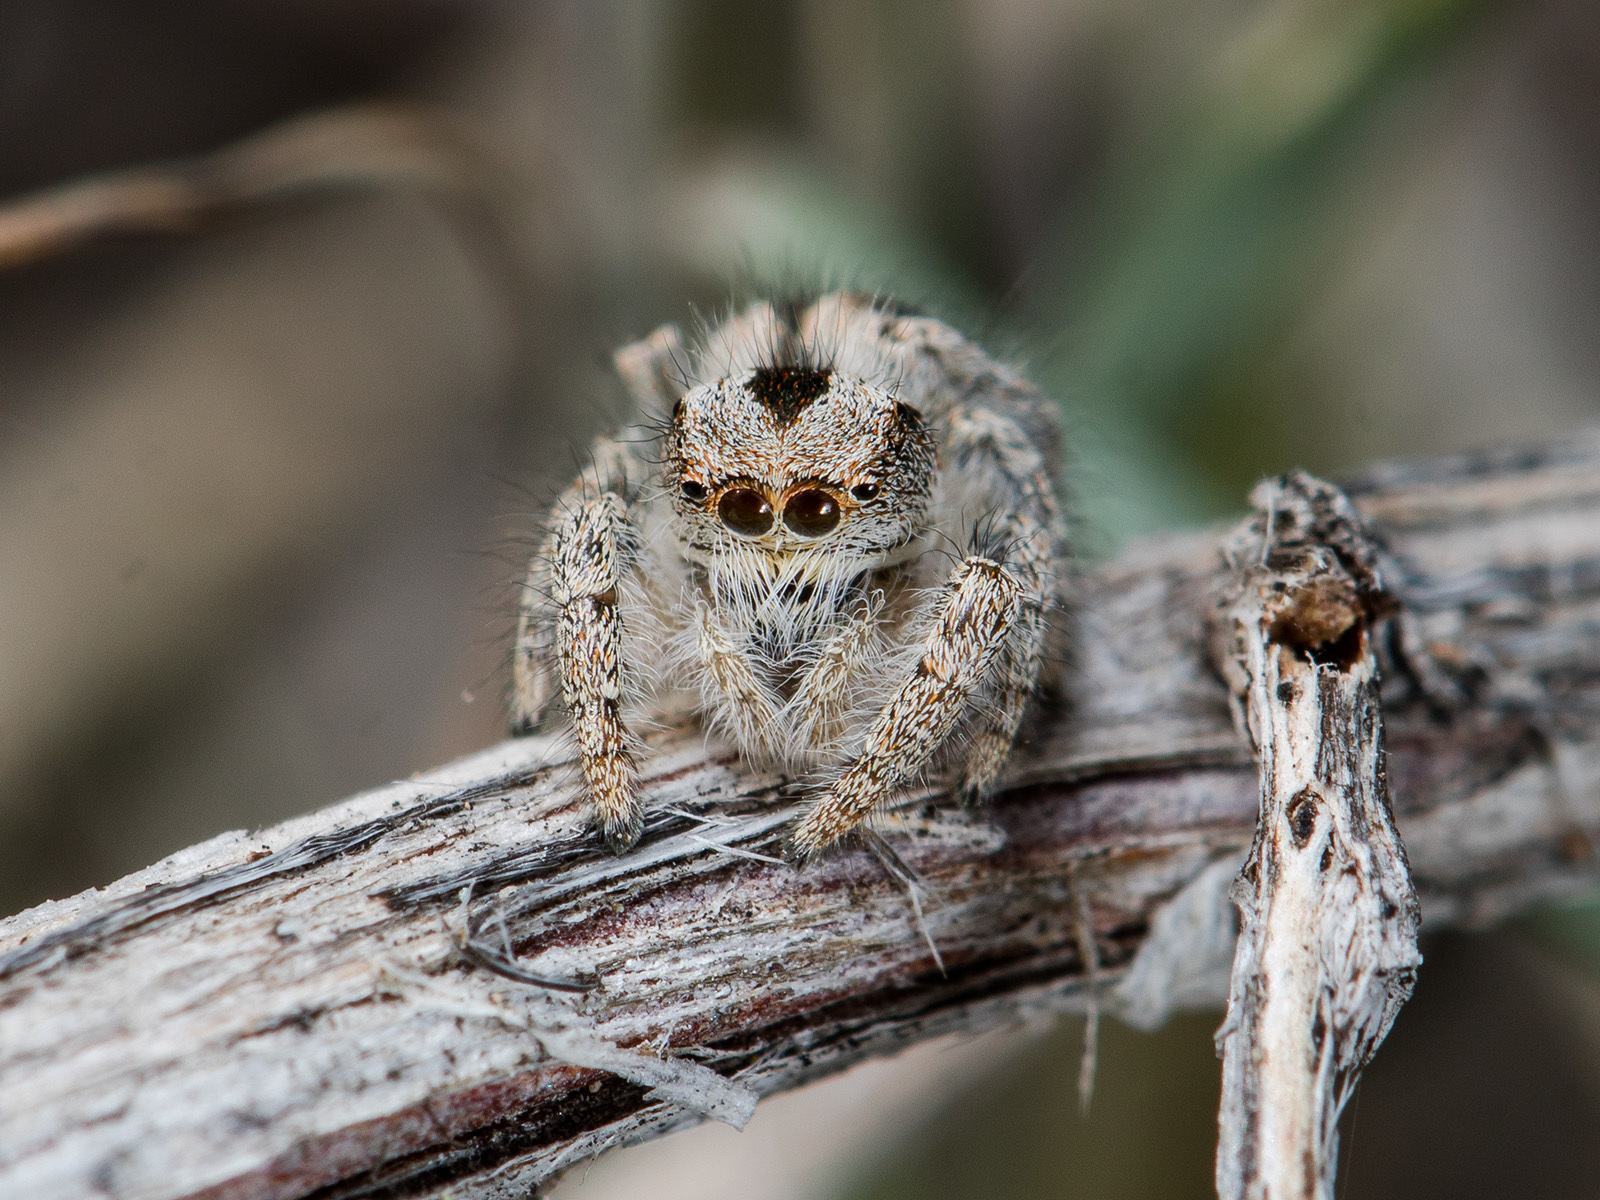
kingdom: Animalia
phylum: Arthropoda
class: Arachnida
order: Araneae
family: Salticidae
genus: Pseudomogrus
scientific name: Pseudomogrus vittatus
